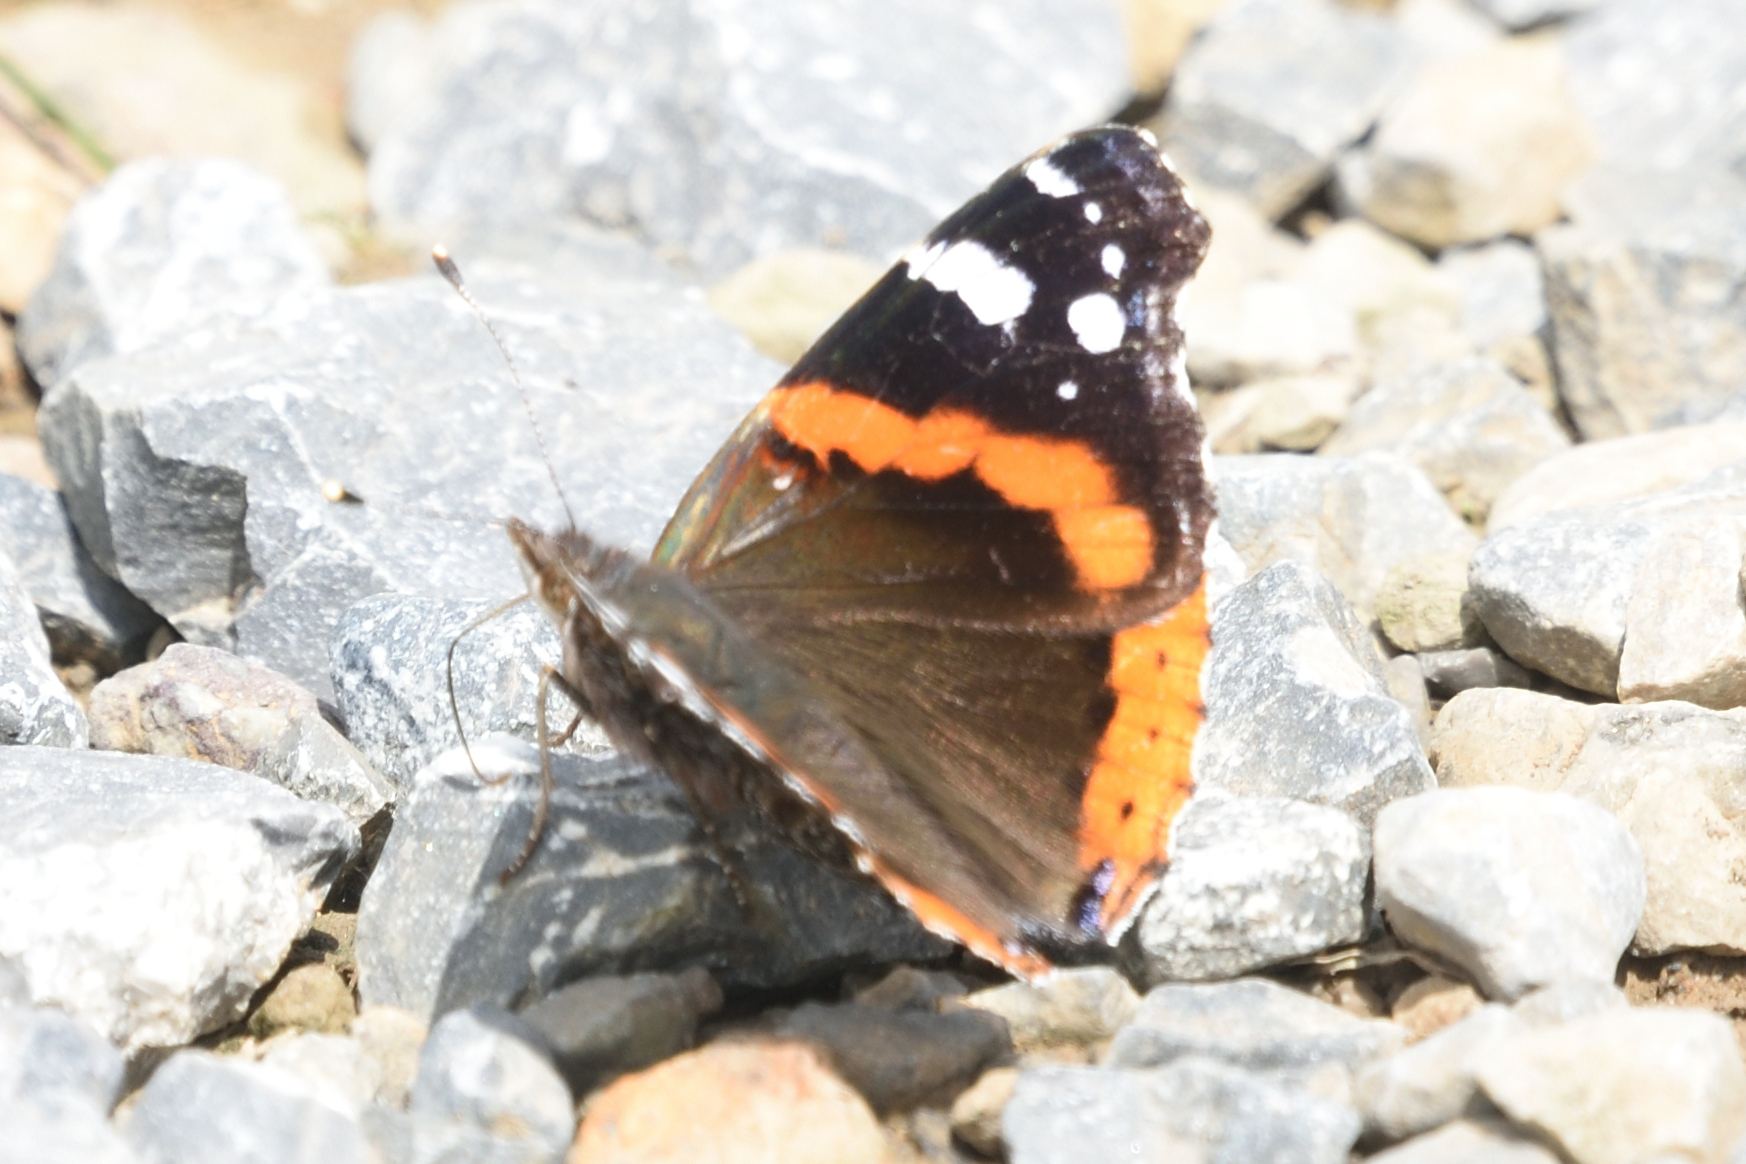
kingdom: Animalia
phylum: Arthropoda
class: Insecta
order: Lepidoptera
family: Nymphalidae
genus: Vanessa
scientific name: Vanessa atalanta
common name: Red admiral
